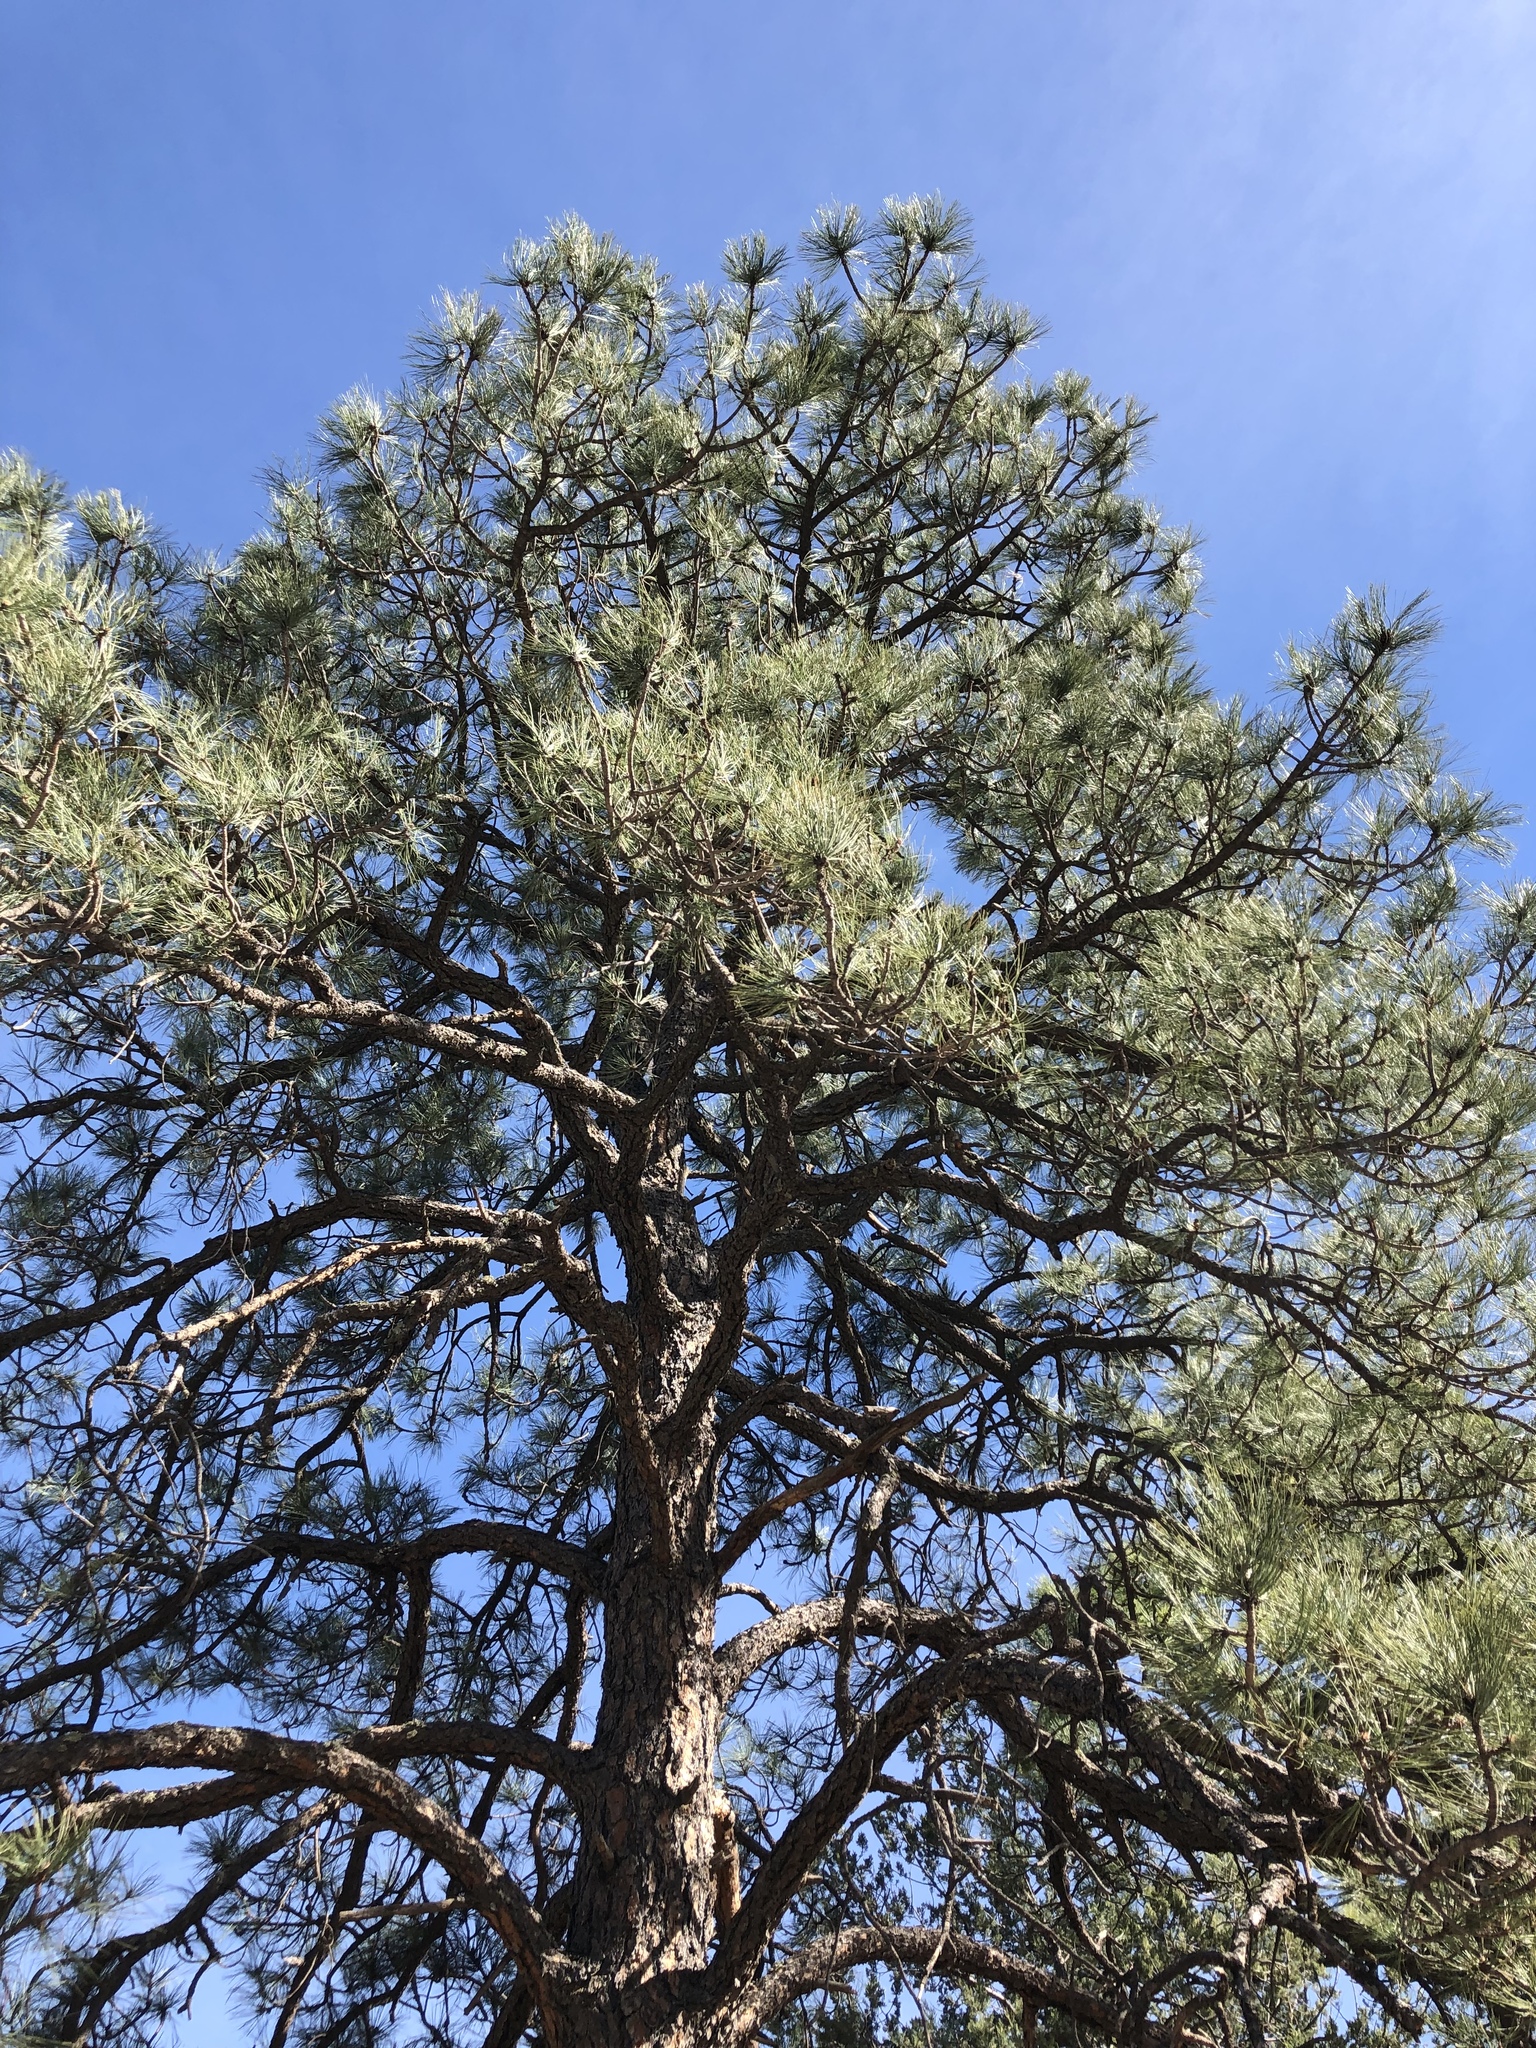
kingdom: Plantae
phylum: Tracheophyta
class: Pinopsida
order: Pinales
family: Pinaceae
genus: Pinus
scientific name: Pinus ponderosa
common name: Western yellow-pine
